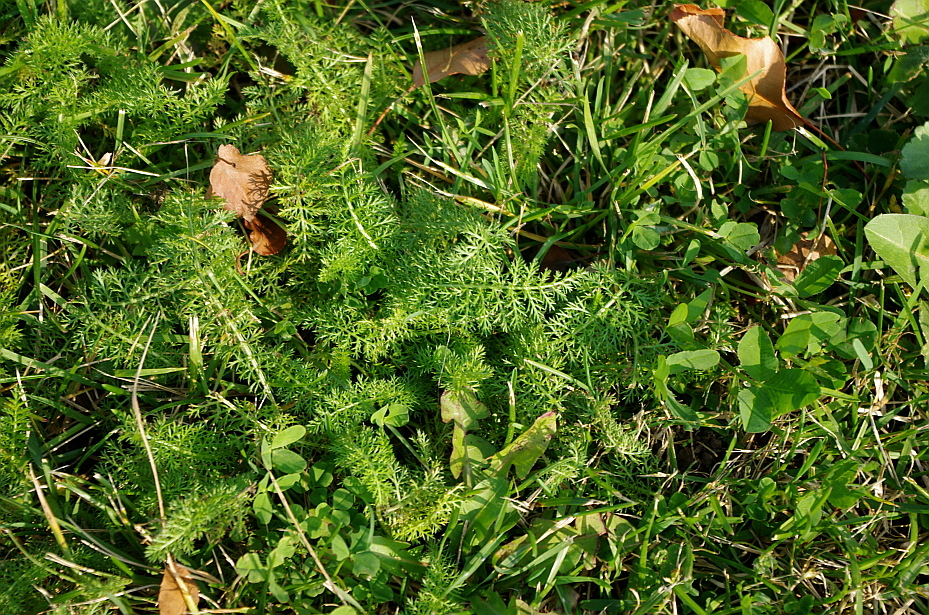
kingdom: Plantae
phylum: Tracheophyta
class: Magnoliopsida
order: Asterales
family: Asteraceae
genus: Achillea
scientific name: Achillea millefolium
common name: Yarrow
